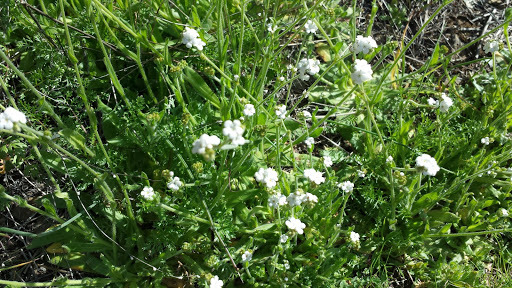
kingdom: Plantae
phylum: Tracheophyta
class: Magnoliopsida
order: Boraginales
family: Boraginaceae
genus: Plagiobothrys
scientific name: Plagiobothrys nothofulvus
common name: Popcorn-flower
